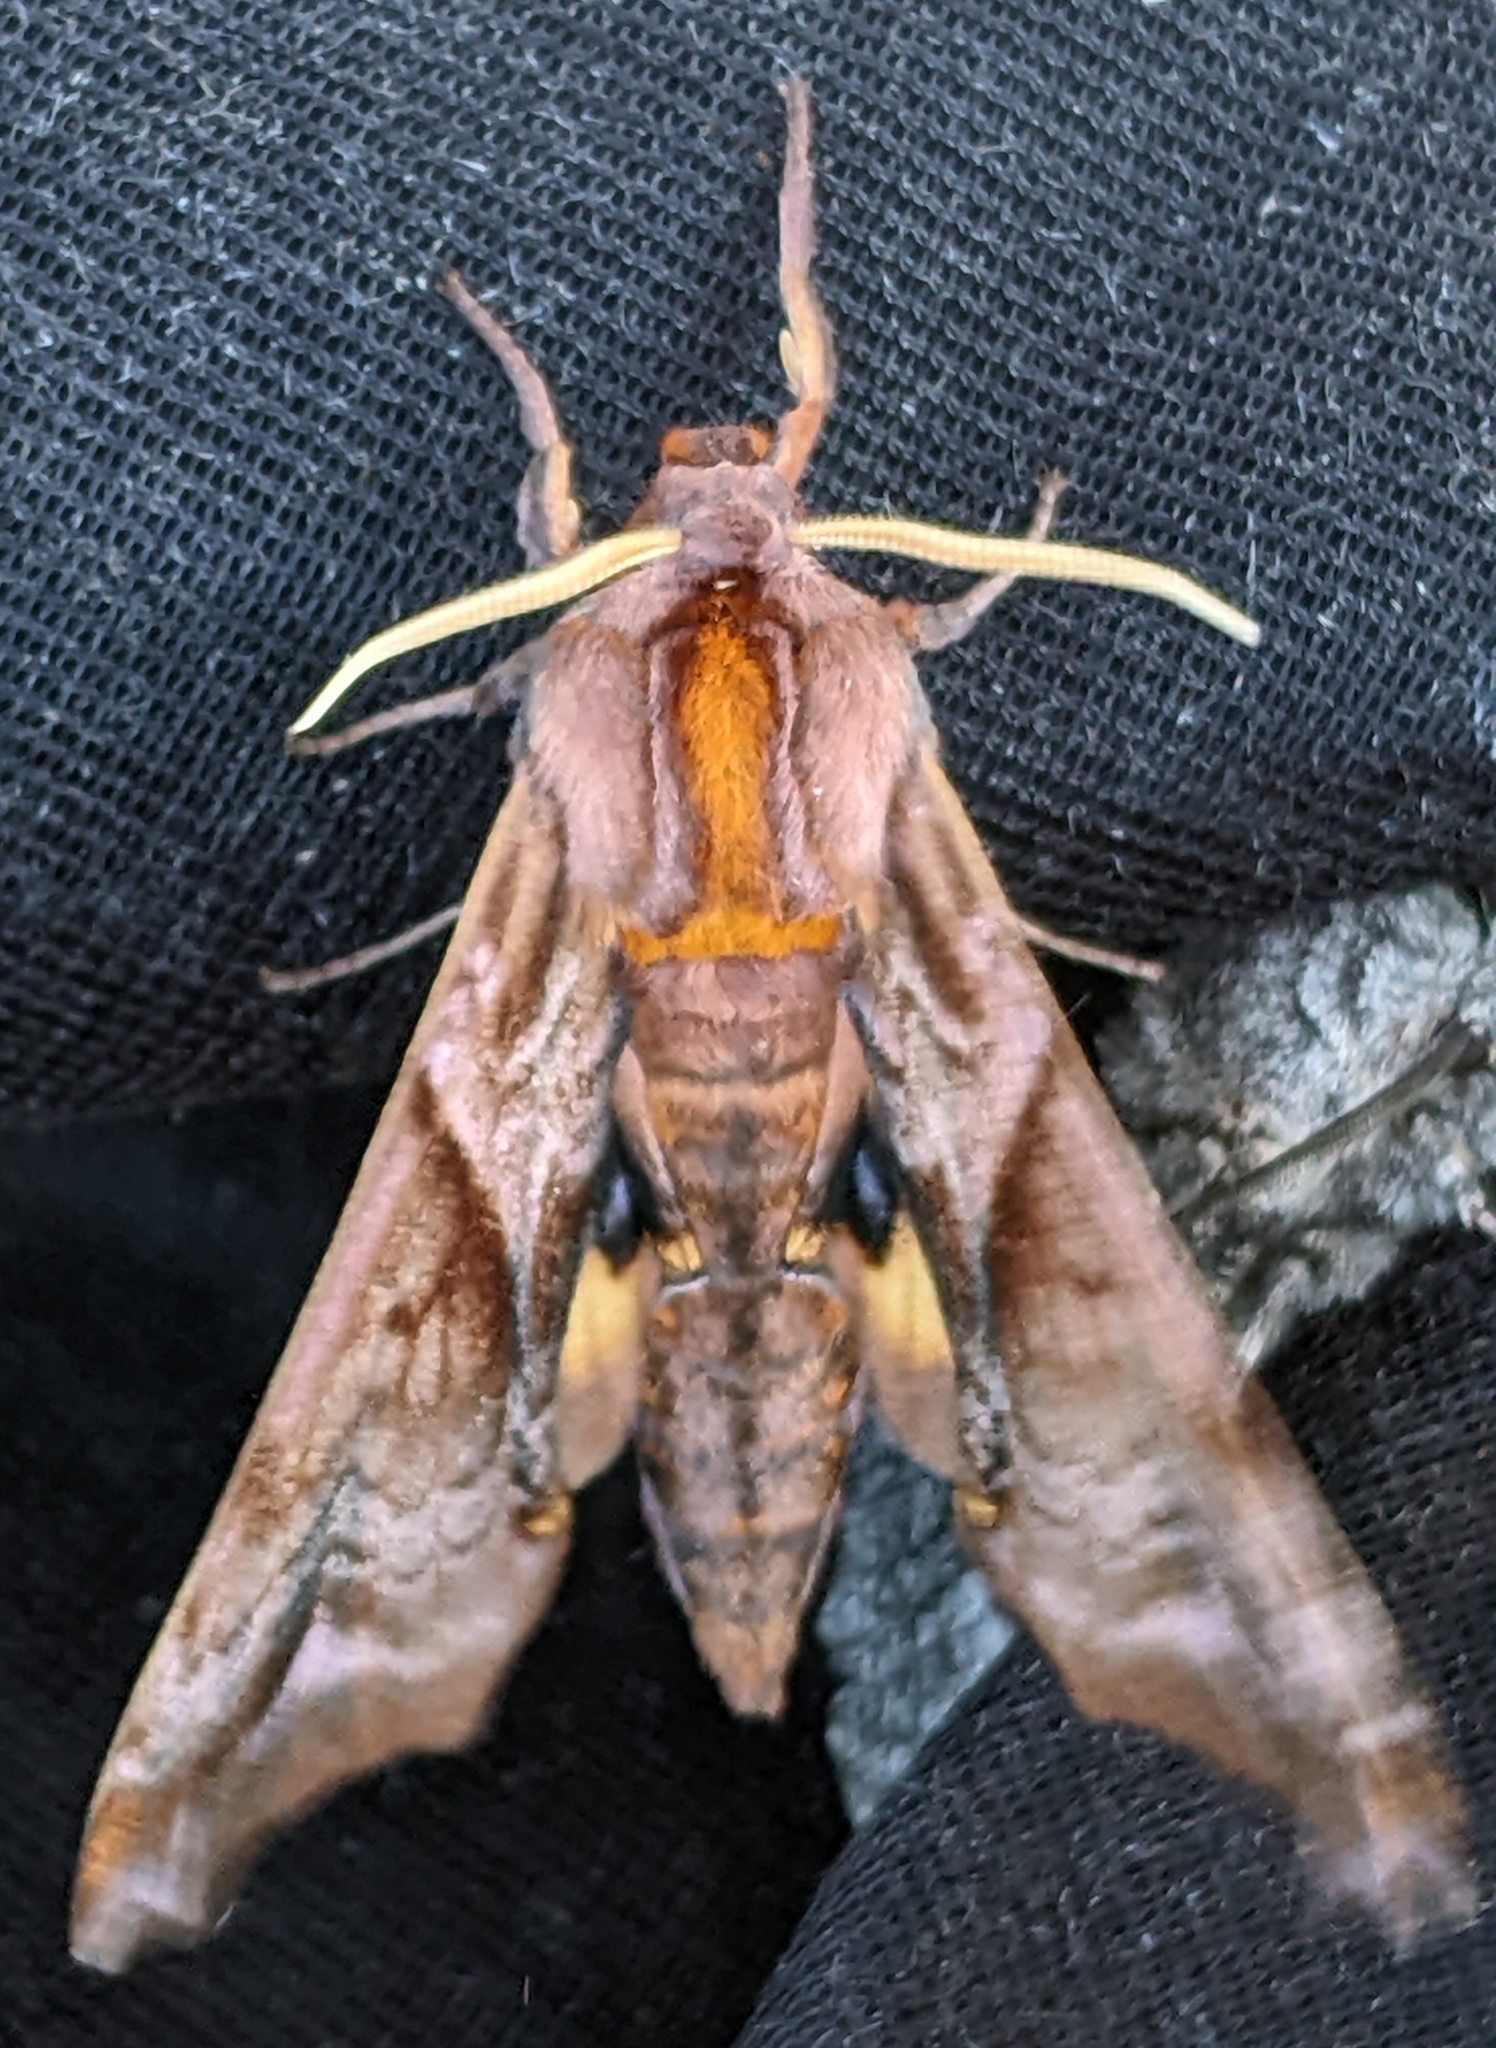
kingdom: Animalia
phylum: Arthropoda
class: Insecta
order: Lepidoptera
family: Sphingidae
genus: Paonias
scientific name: Paonias myops
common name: Small-eyed sphinx
